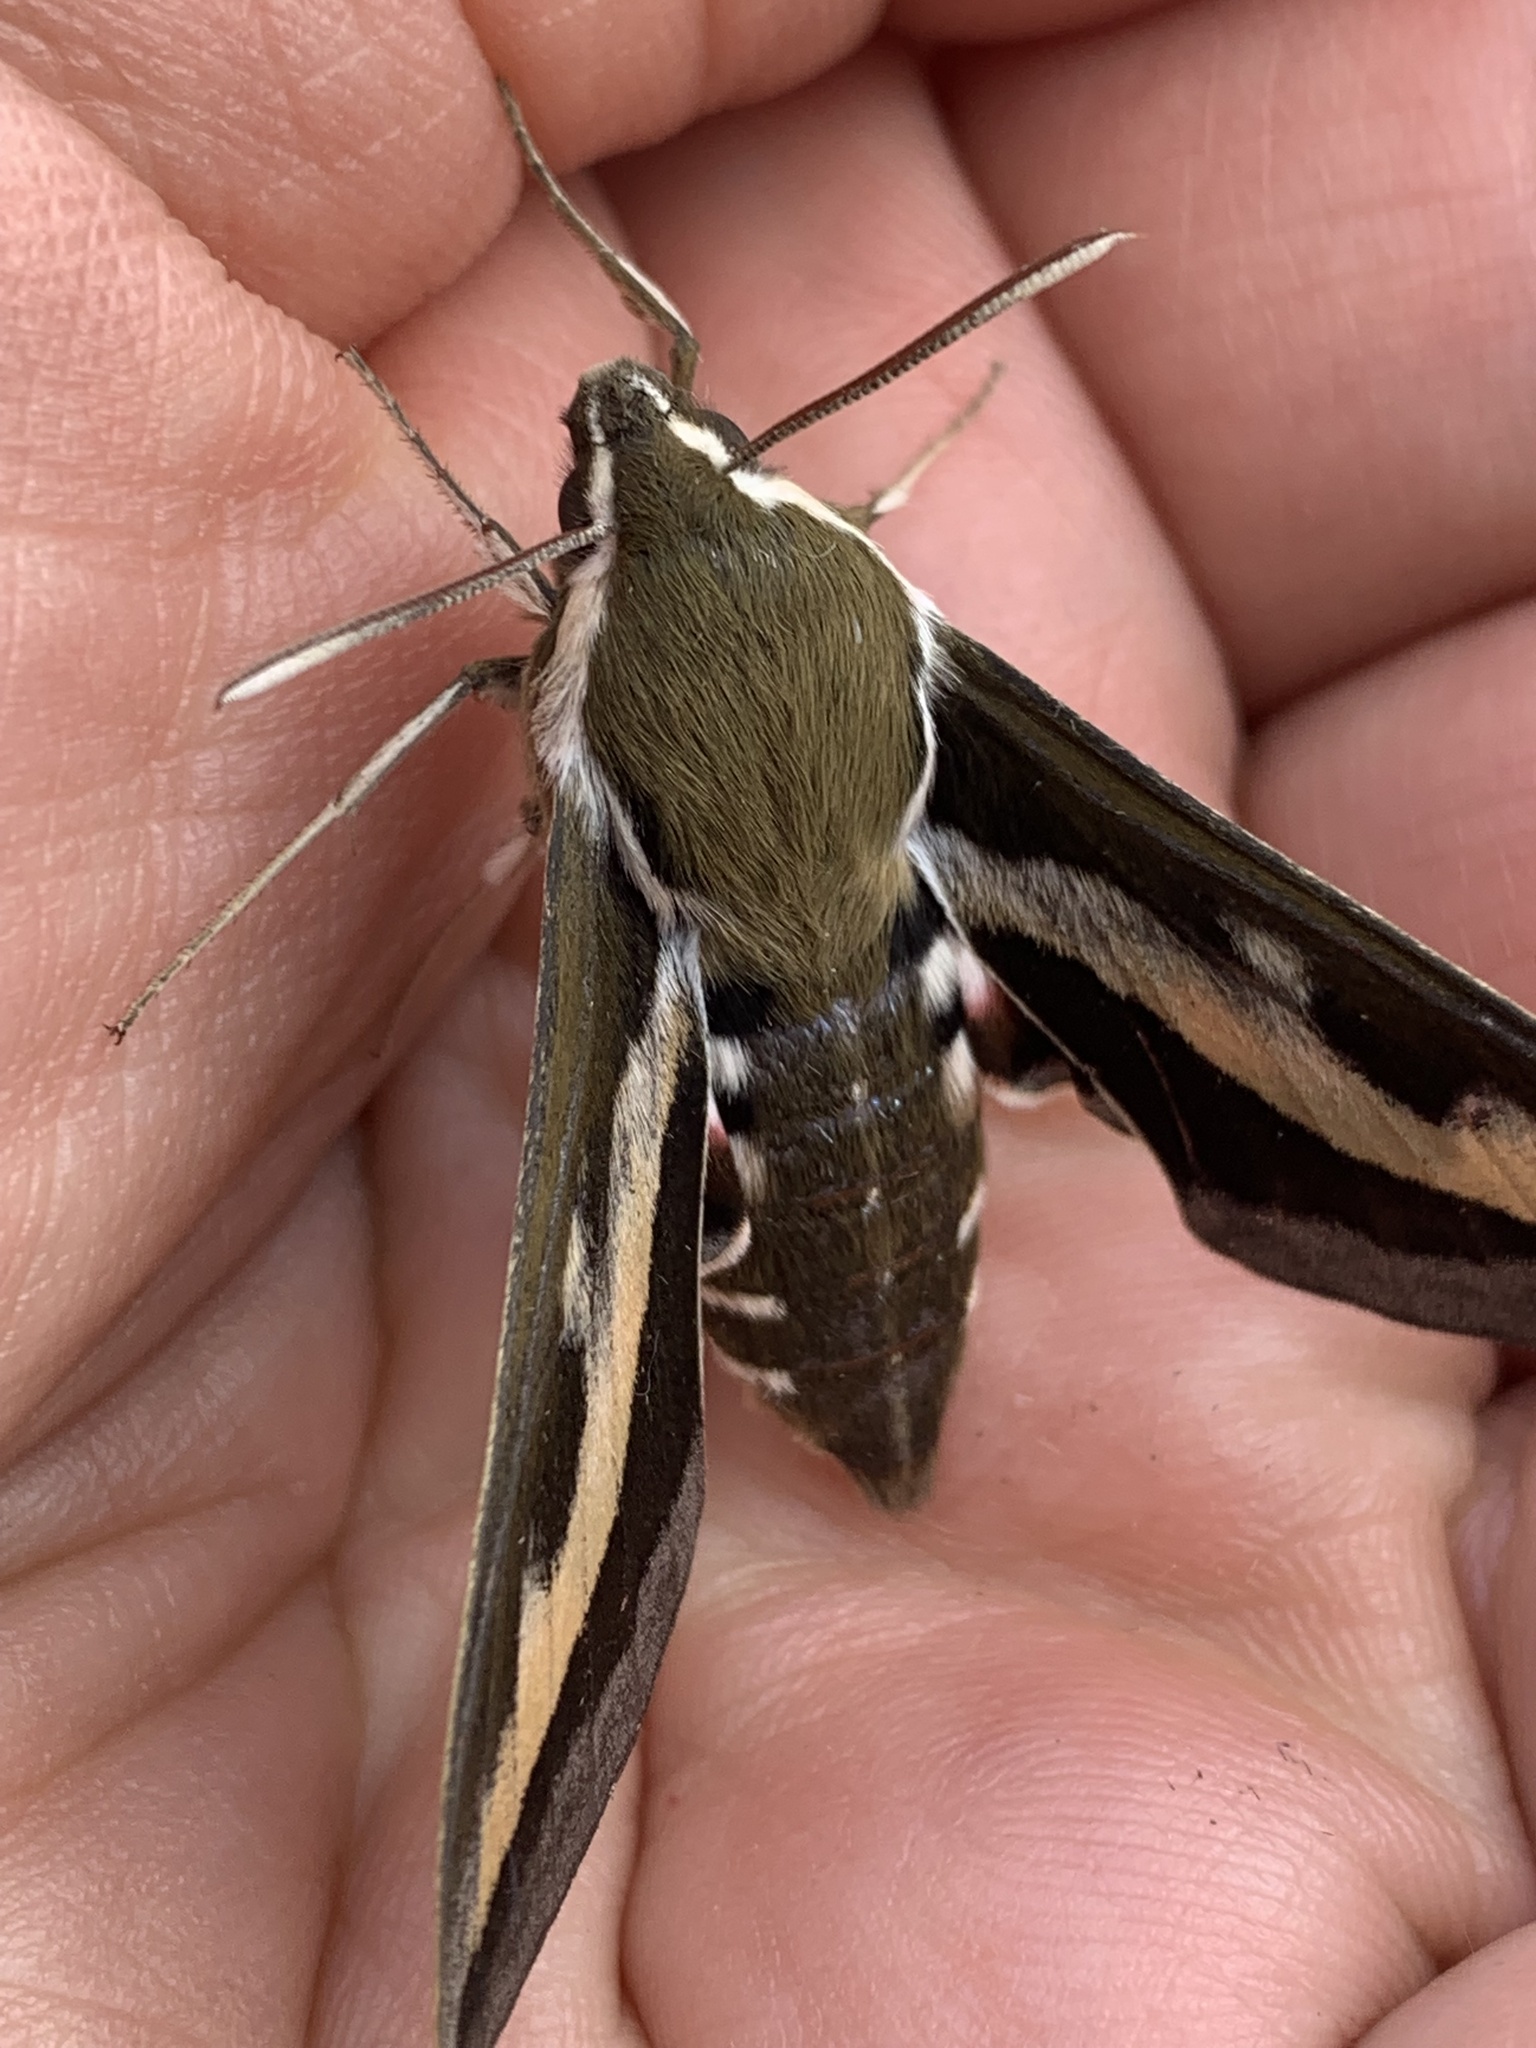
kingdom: Animalia
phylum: Arthropoda
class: Insecta
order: Lepidoptera
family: Sphingidae
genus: Hyles
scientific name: Hyles gallii
